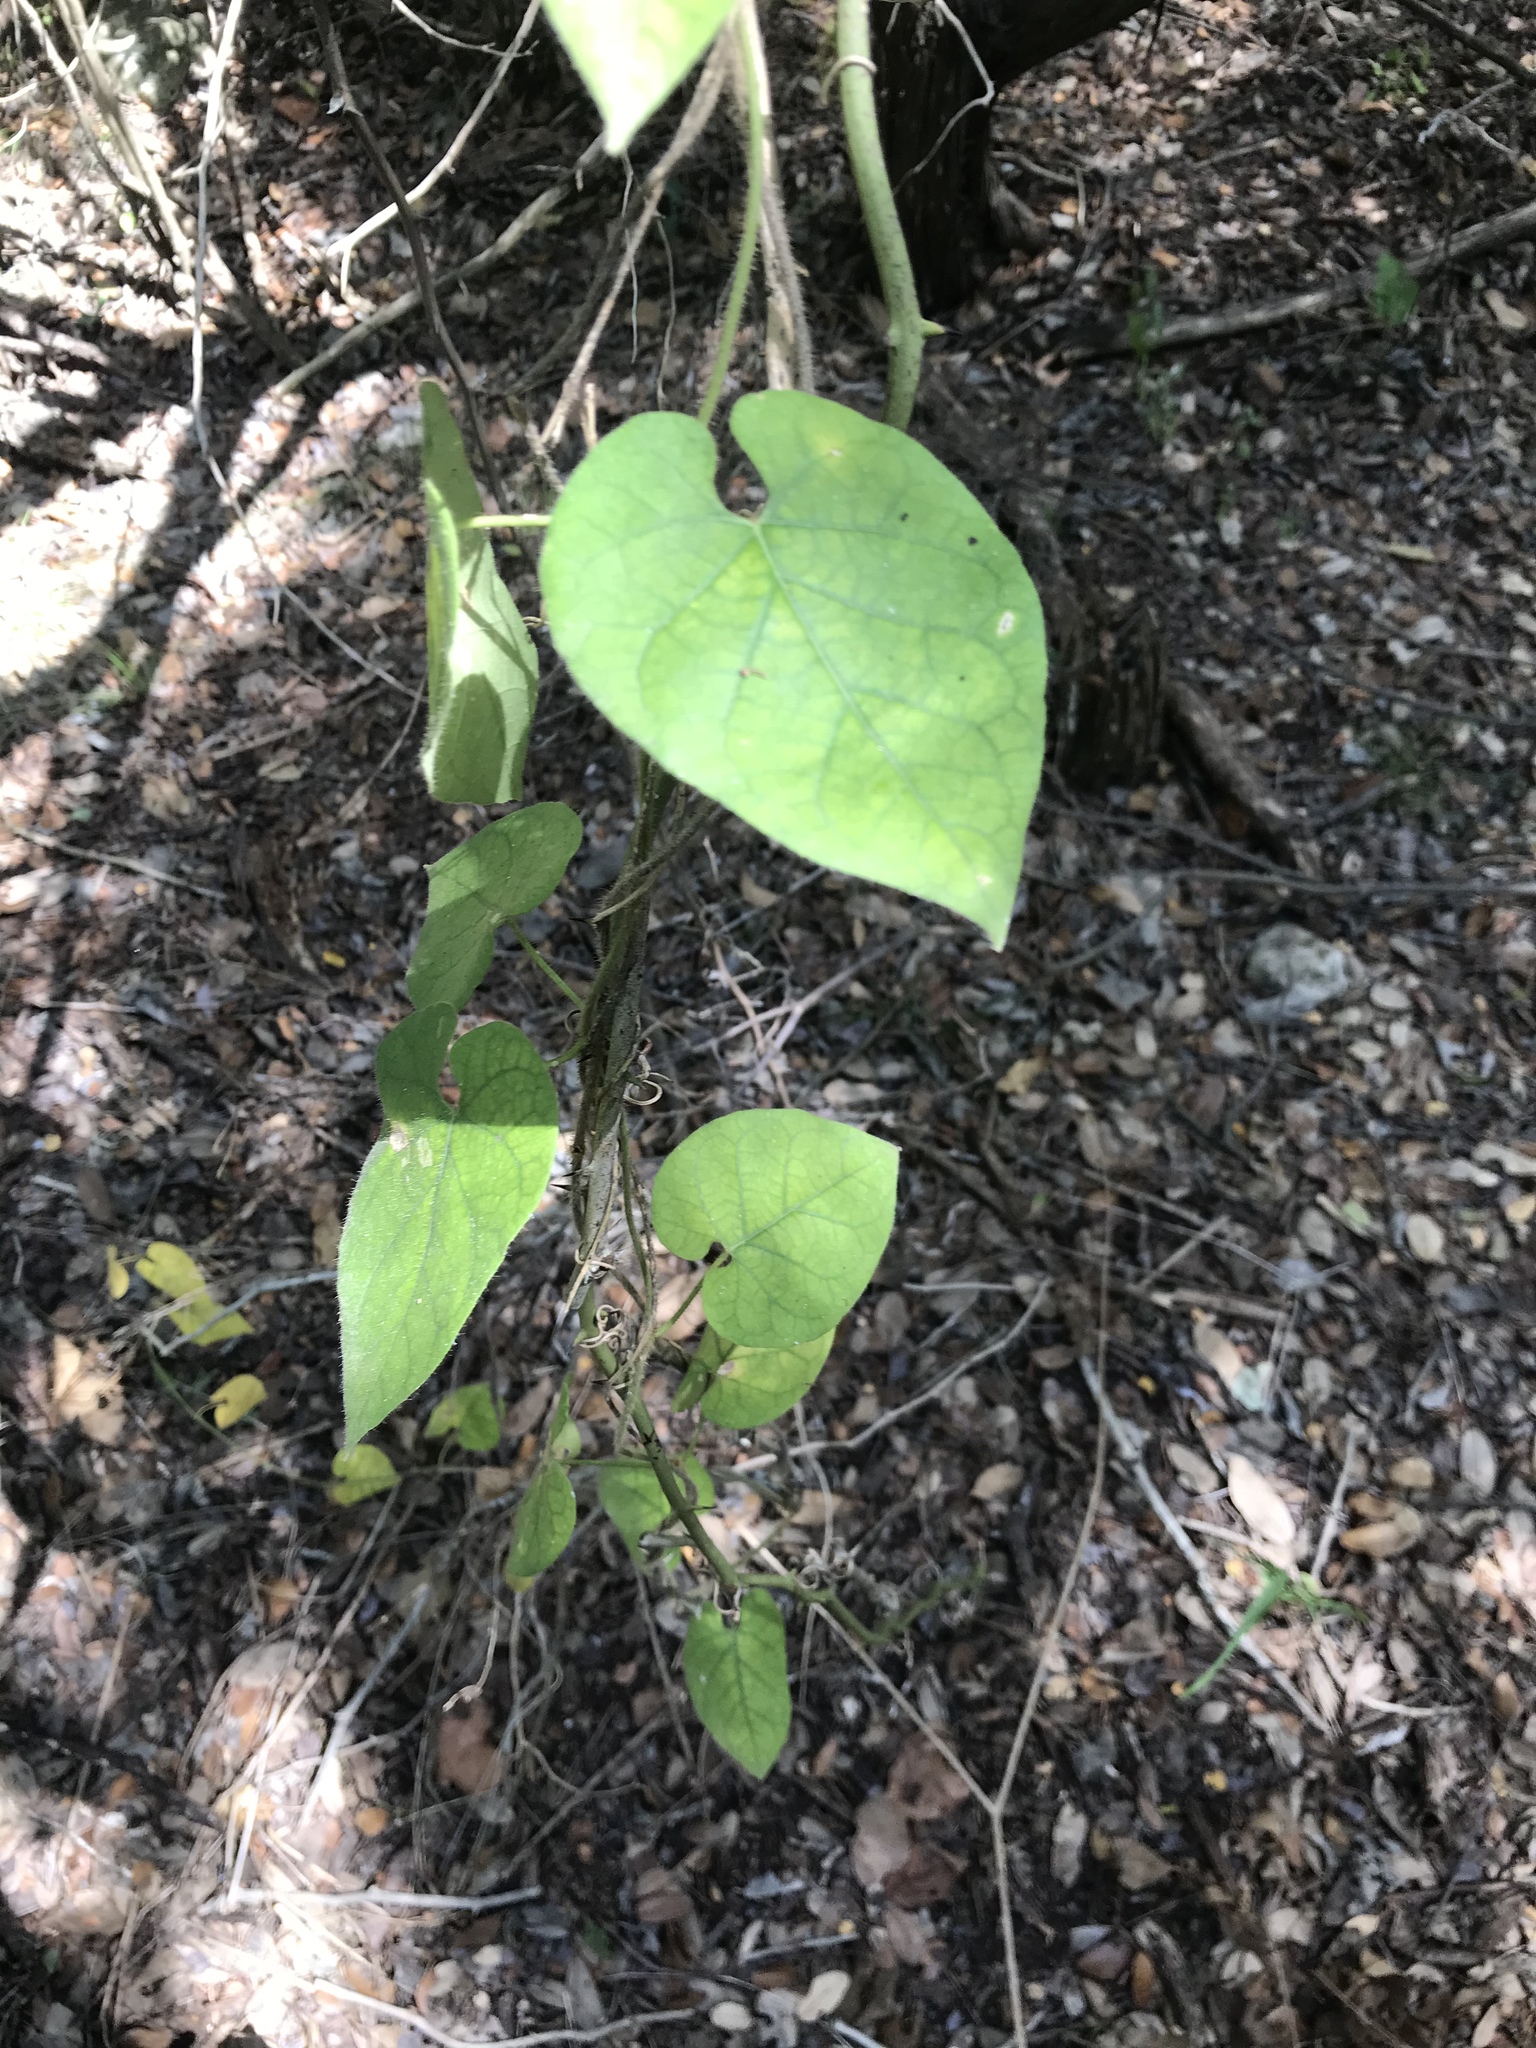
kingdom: Plantae
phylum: Tracheophyta
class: Magnoliopsida
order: Gentianales
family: Apocynaceae
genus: Dictyanthus
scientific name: Dictyanthus reticulatus
